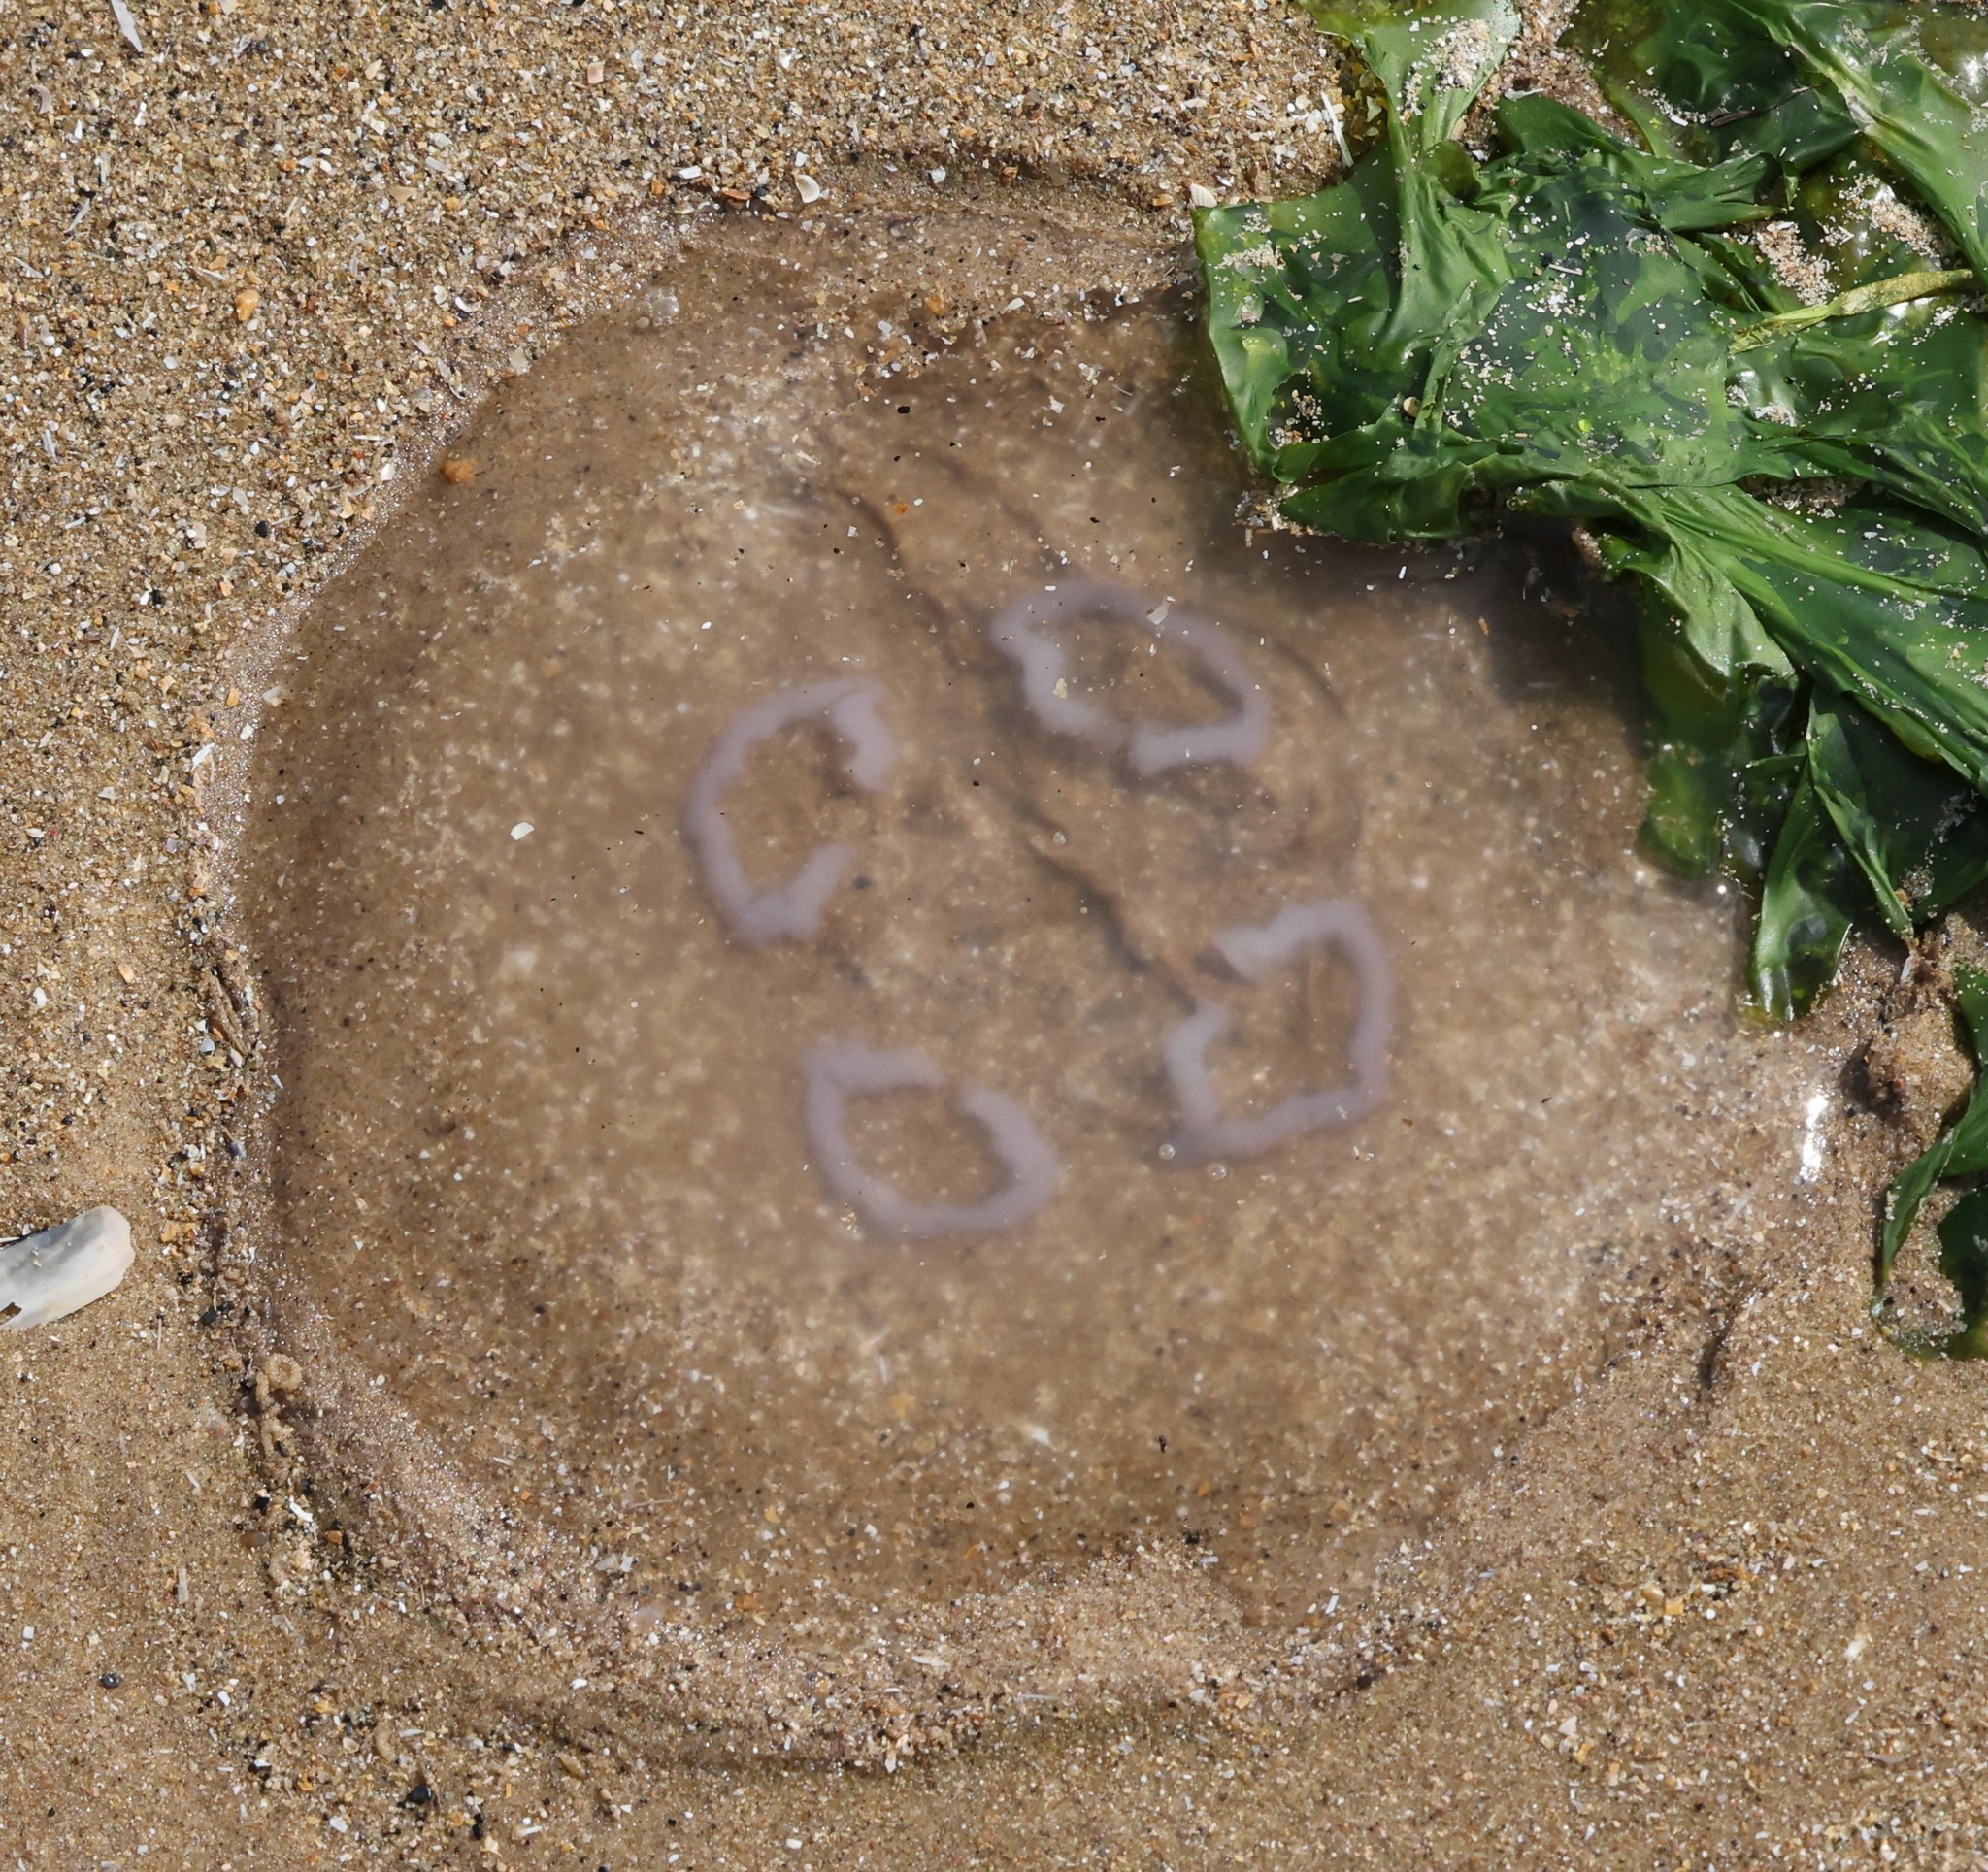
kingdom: Animalia
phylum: Cnidaria
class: Scyphozoa
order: Semaeostomeae
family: Ulmaridae
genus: Aurelia
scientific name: Aurelia aurita
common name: Moon jellyfish
